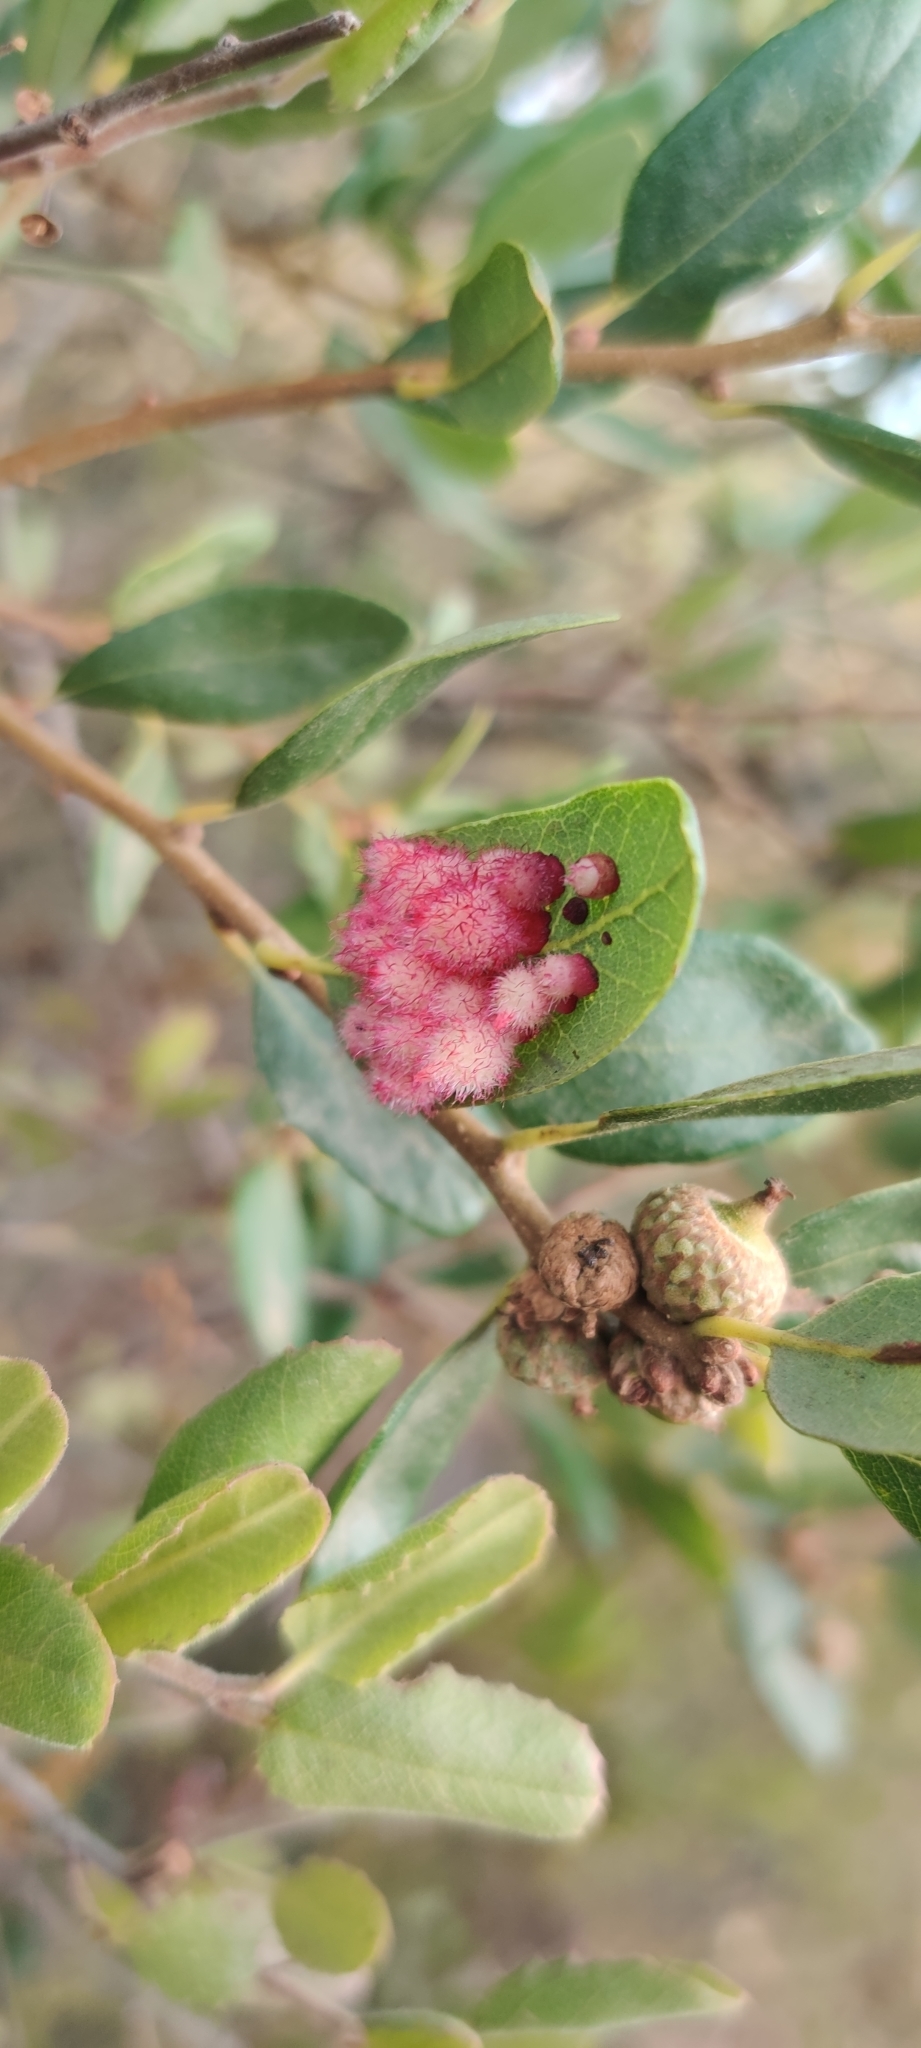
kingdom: Animalia
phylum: Arthropoda
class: Insecta
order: Hymenoptera
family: Cynipidae
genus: Andricus
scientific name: Andricus
